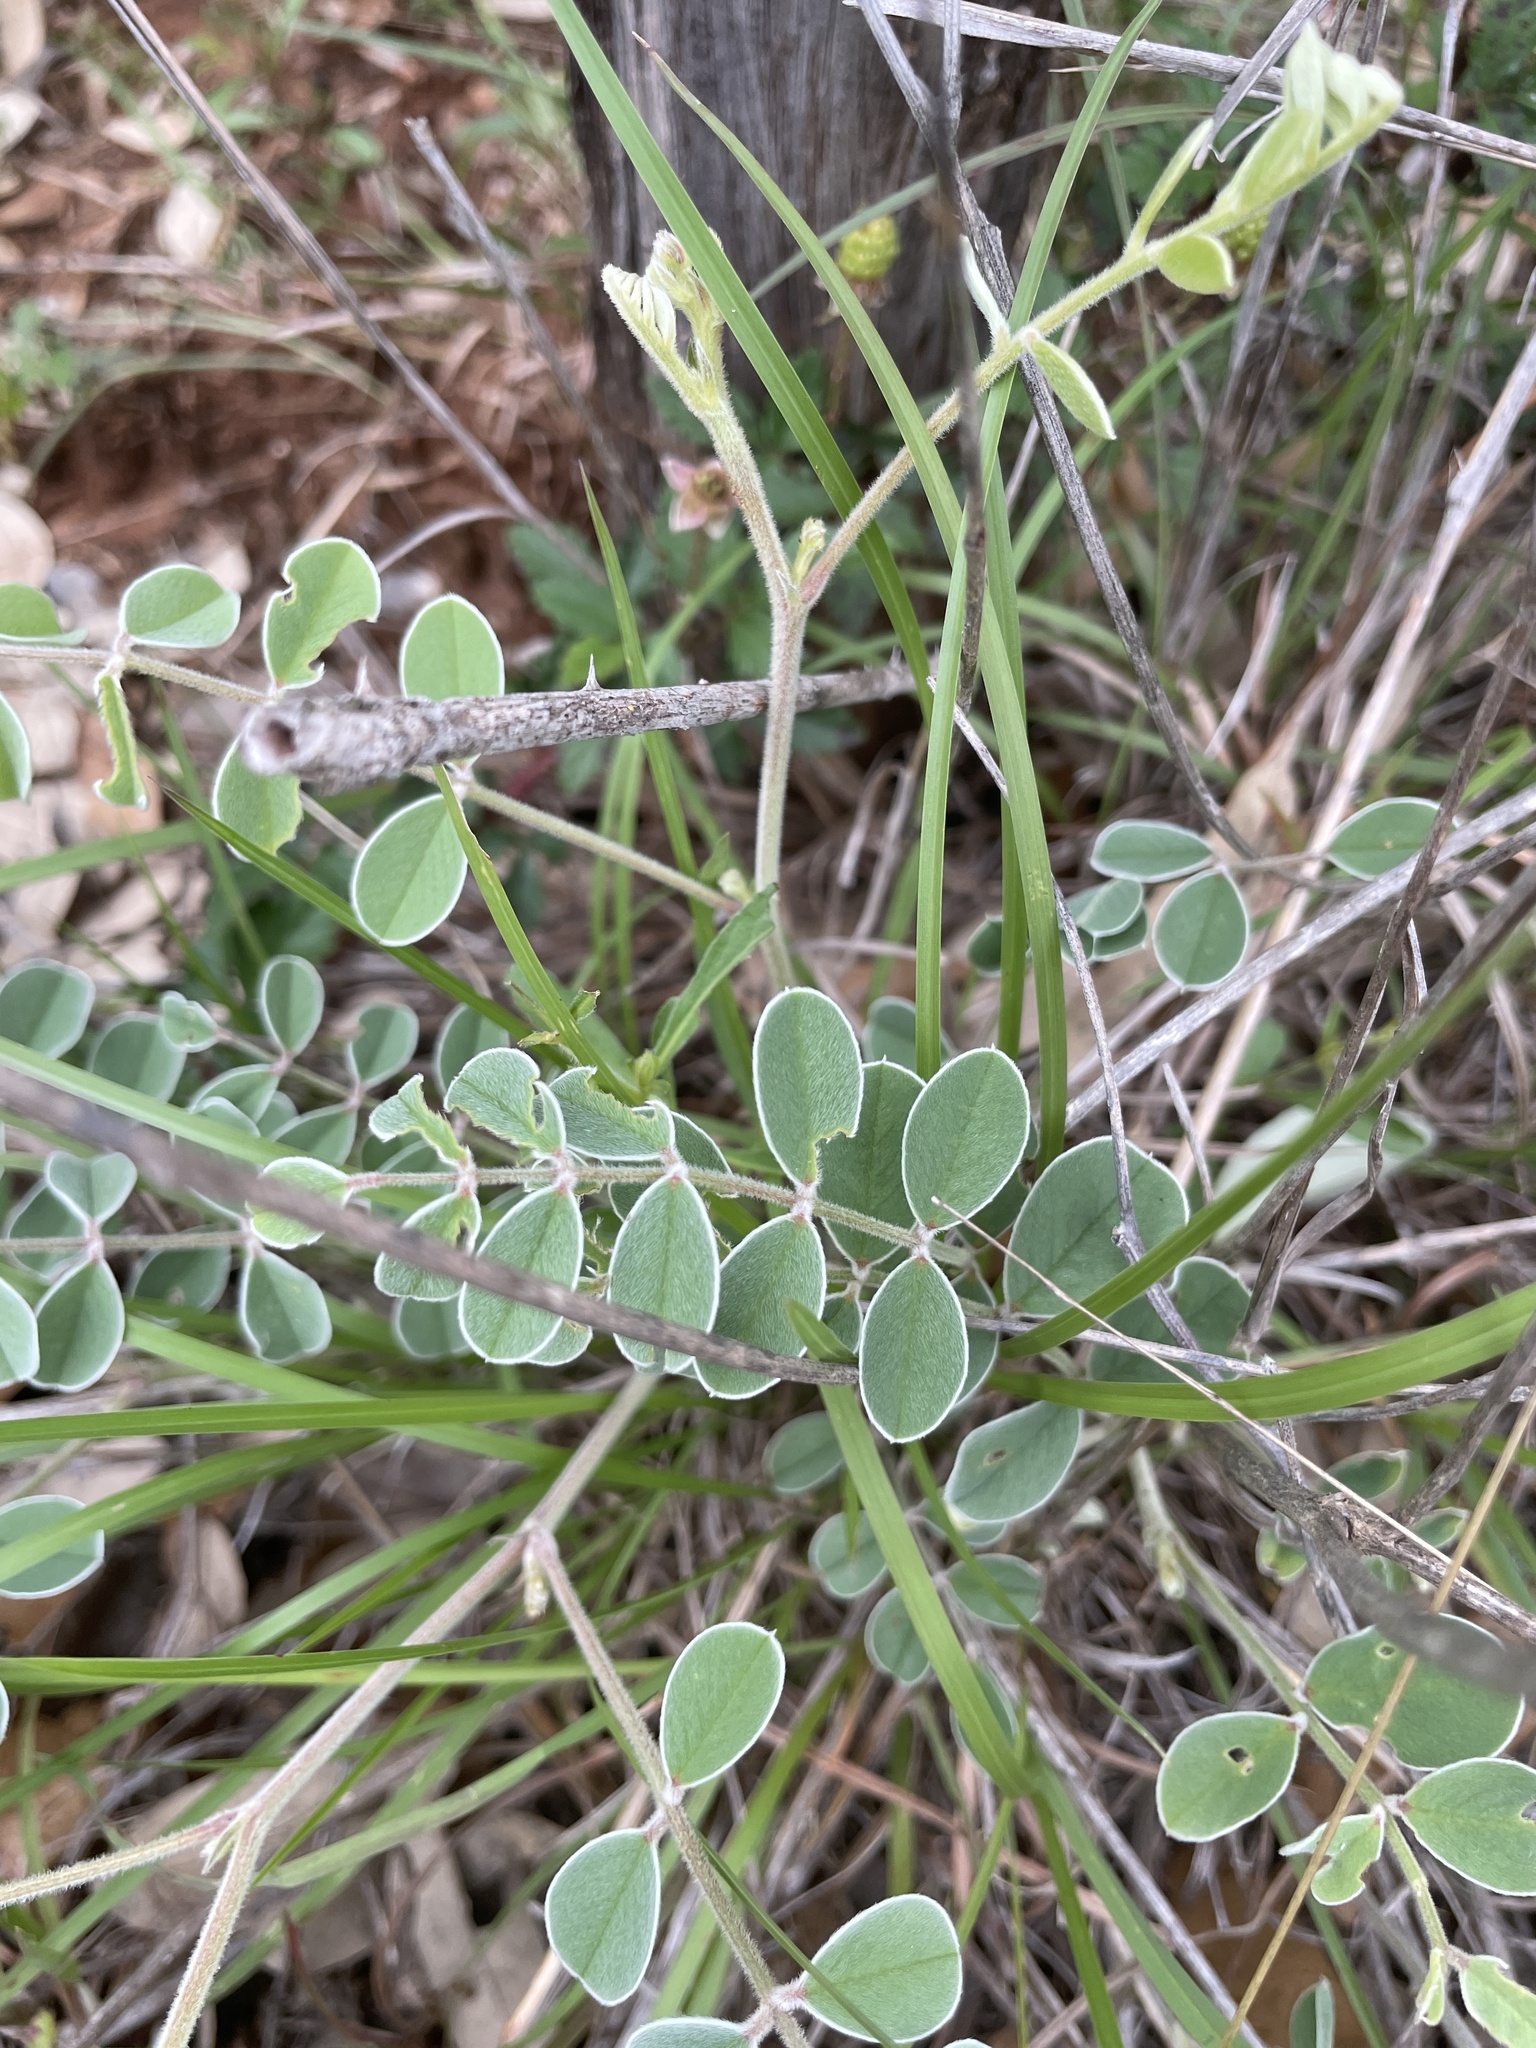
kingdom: Plantae
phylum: Tracheophyta
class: Magnoliopsida
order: Fabales
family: Fabaceae
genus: Tephrosia
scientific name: Tephrosia lindheimeri
